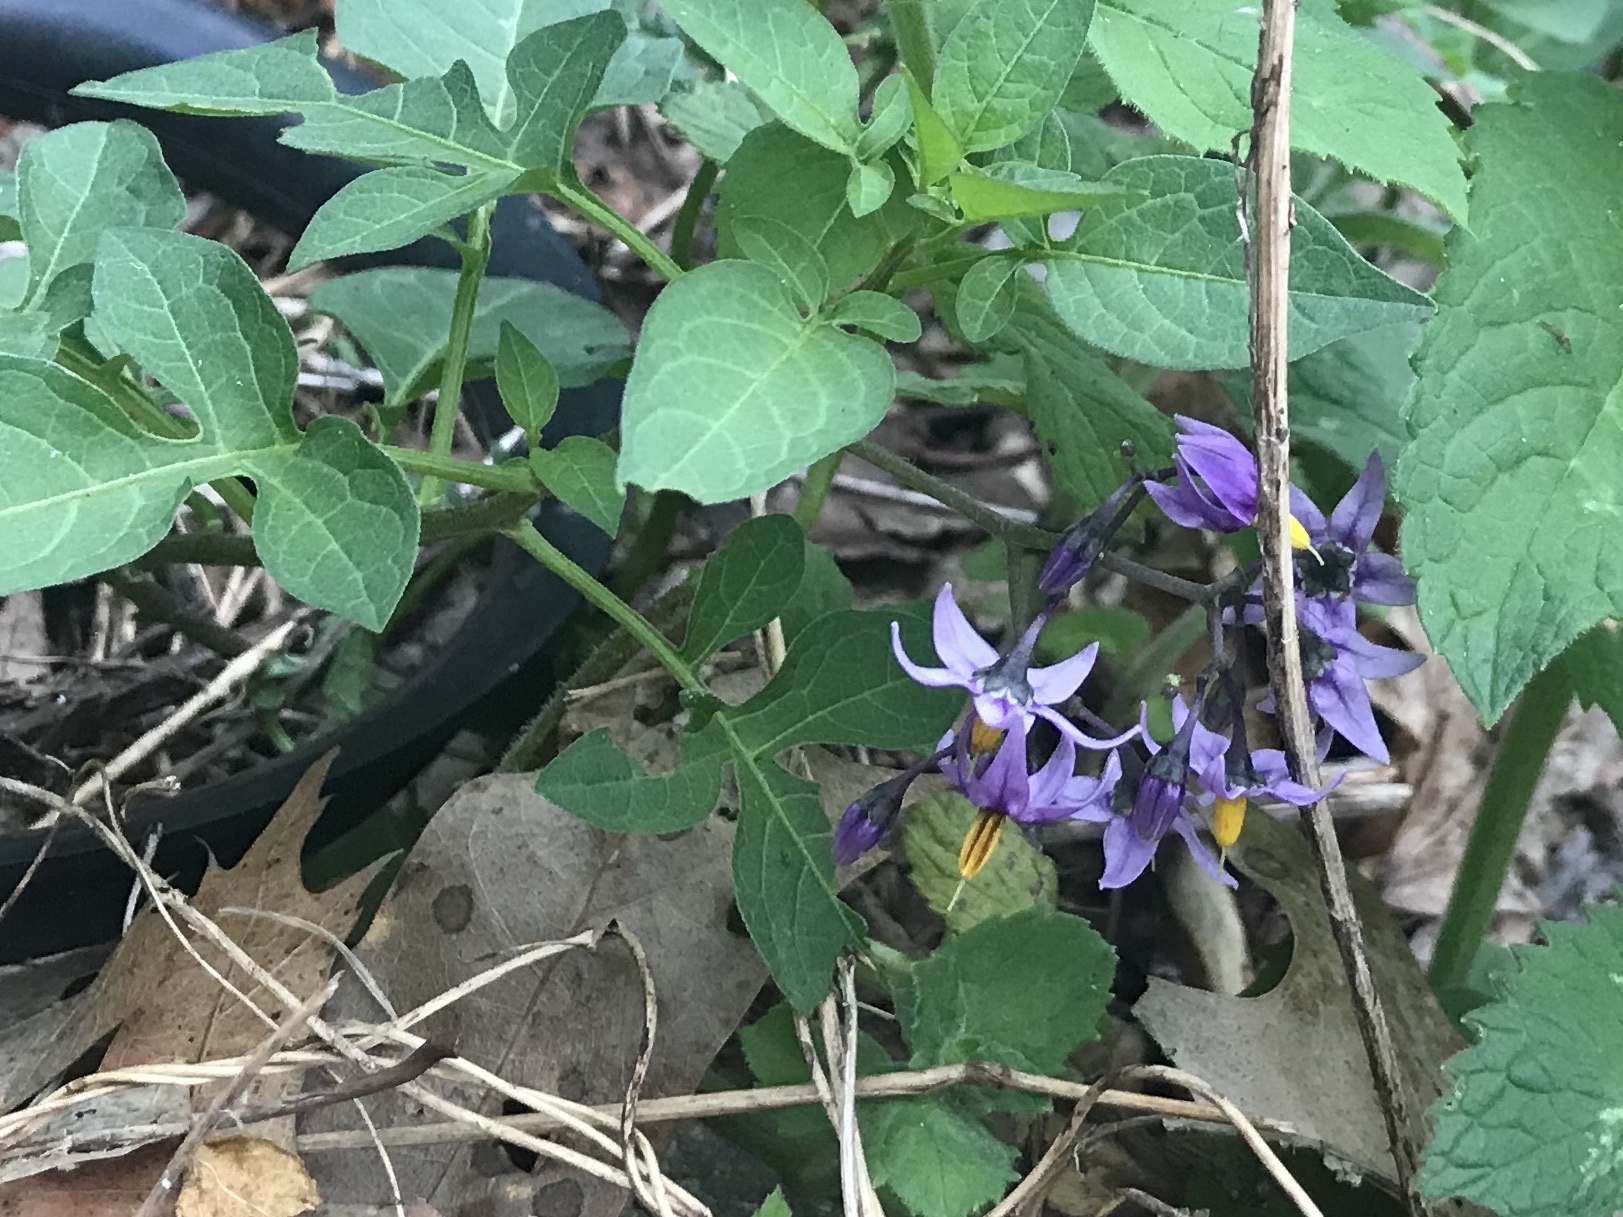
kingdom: Plantae
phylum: Tracheophyta
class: Magnoliopsida
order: Solanales
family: Solanaceae
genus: Solanum
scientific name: Solanum dulcamara
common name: Climbing nightshade
